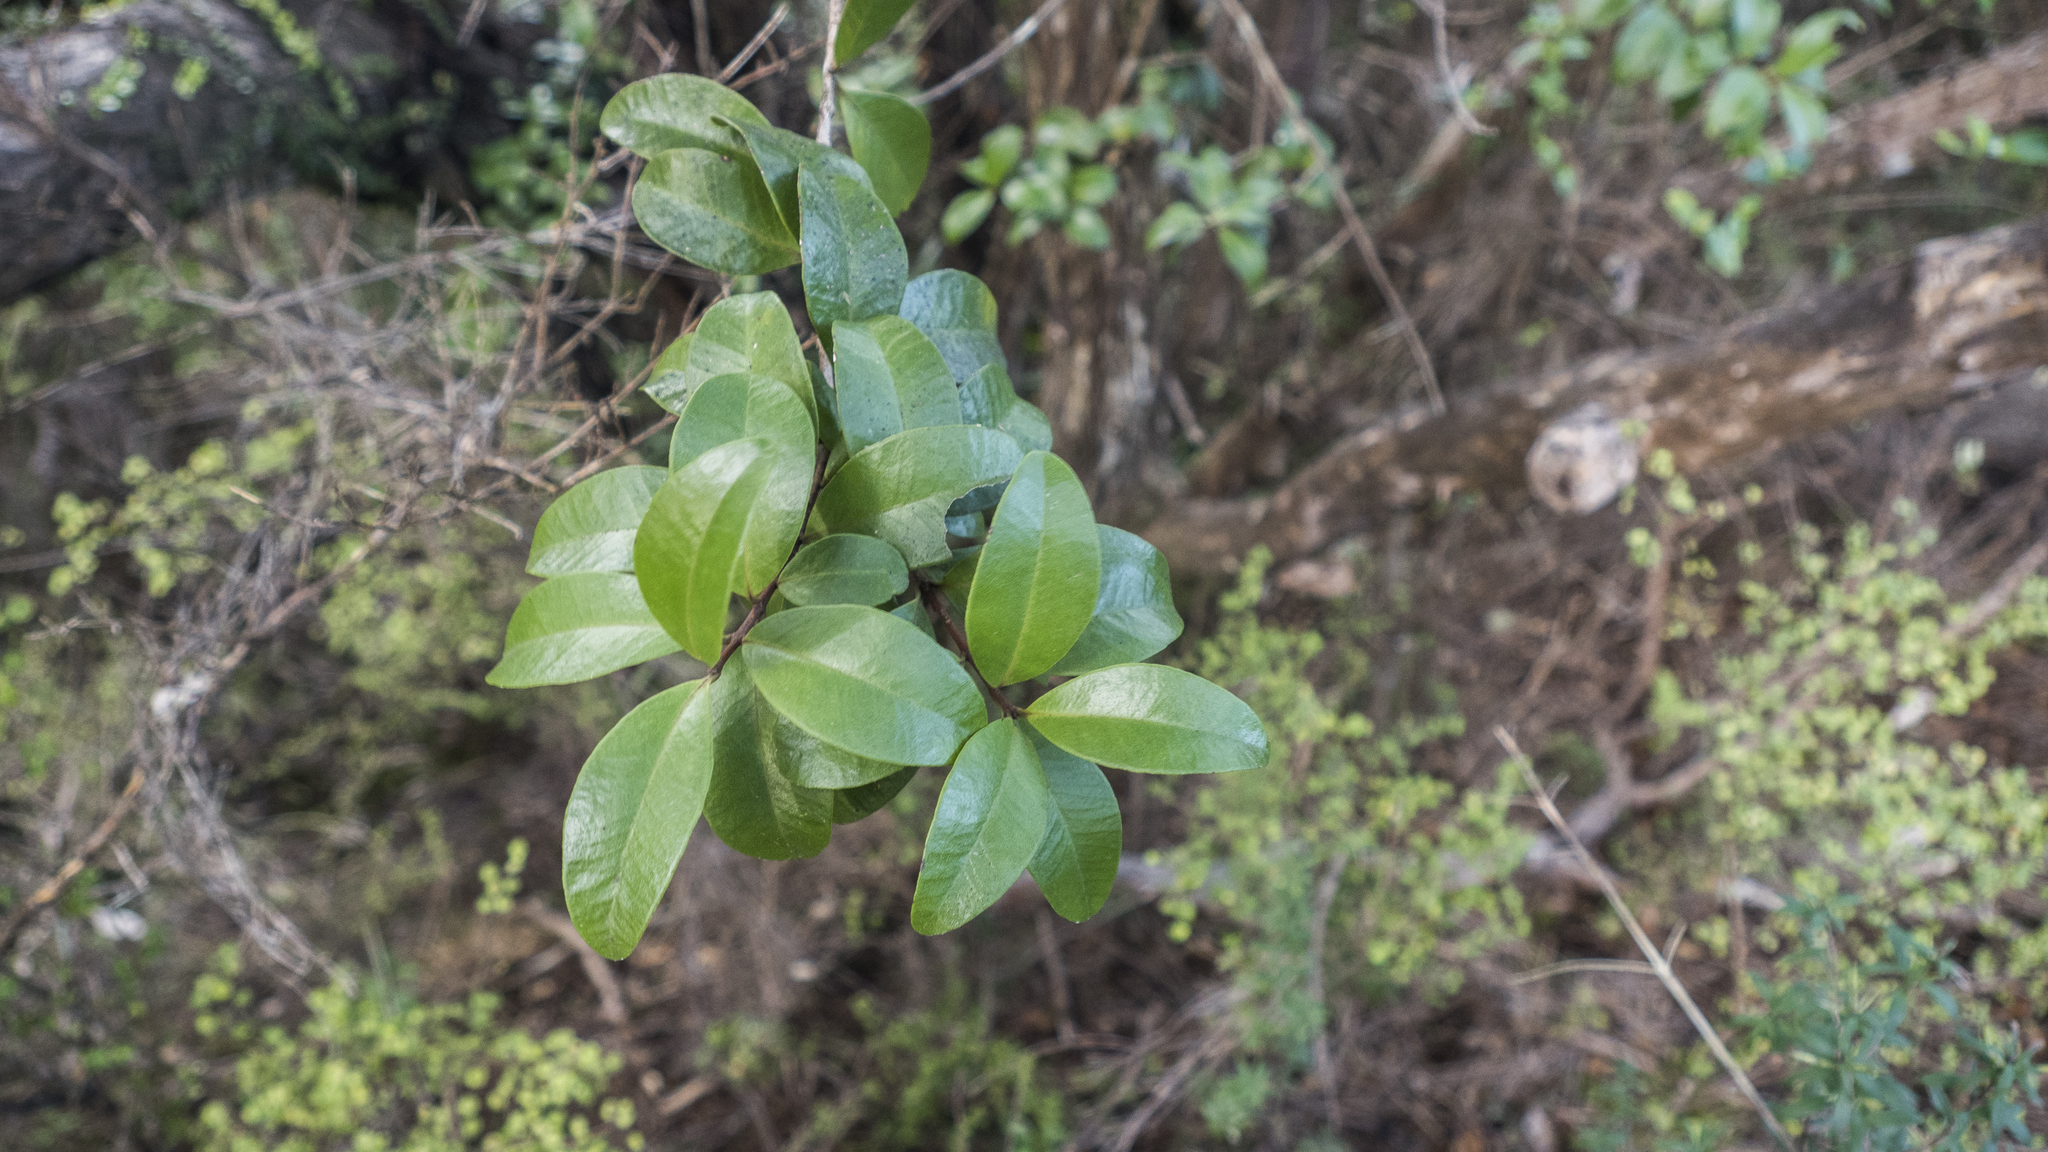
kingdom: Plantae
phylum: Tracheophyta
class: Magnoliopsida
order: Myrtales
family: Myrtaceae
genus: Metrosideros
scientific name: Metrosideros fulgens
